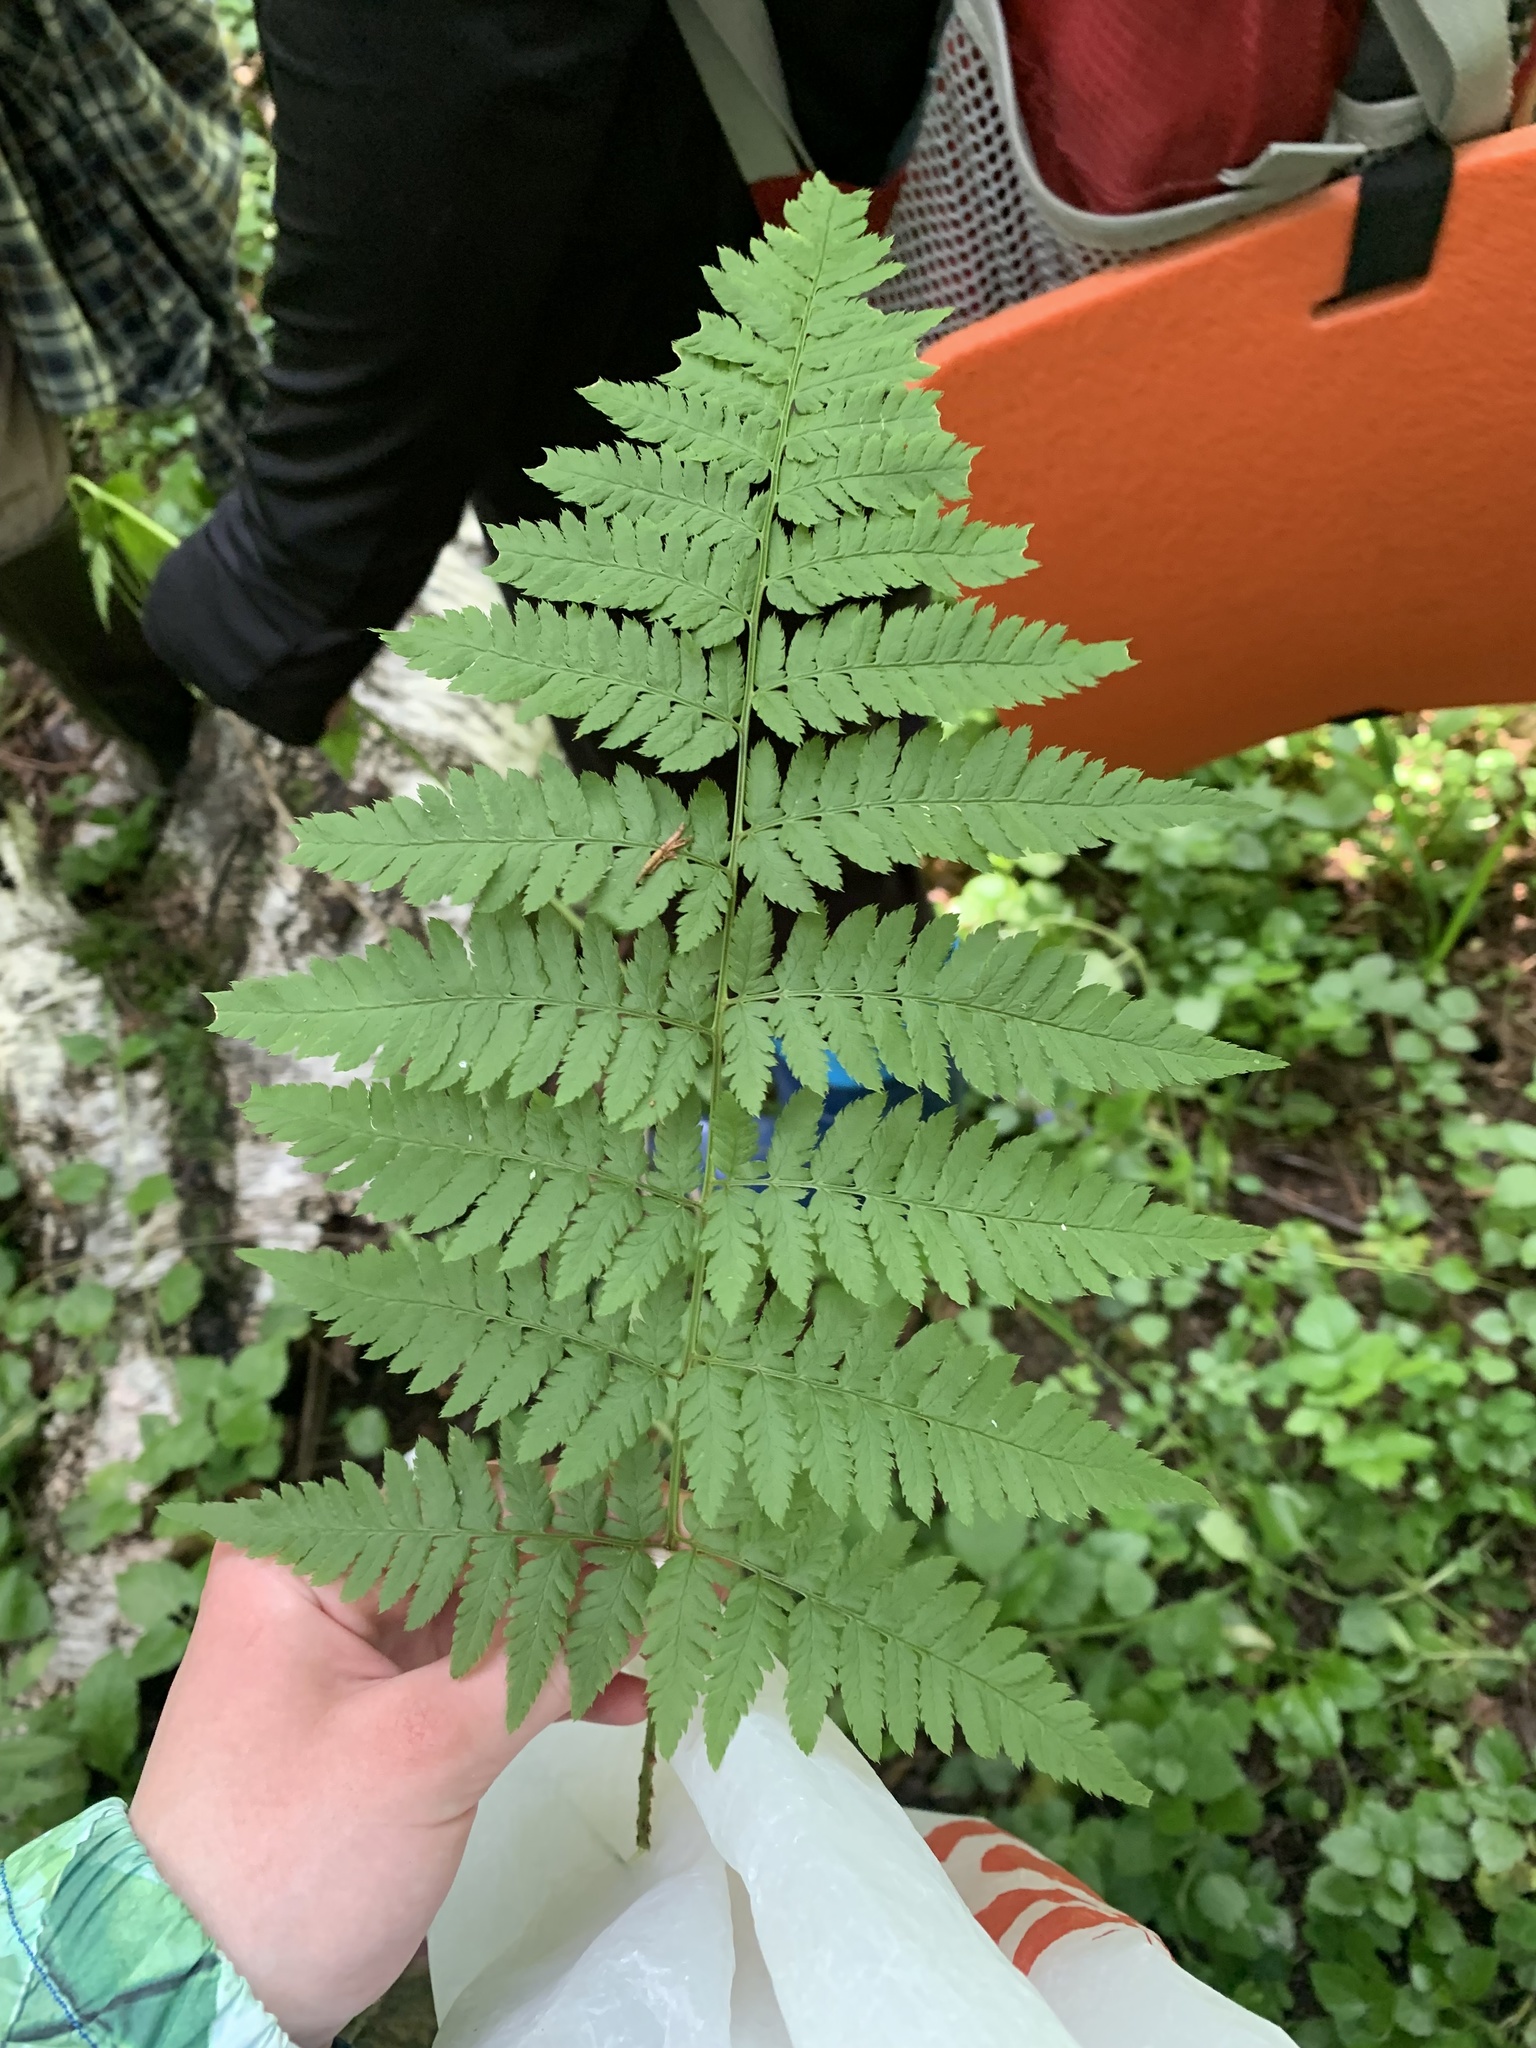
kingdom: Plantae
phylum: Tracheophyta
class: Polypodiopsida
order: Polypodiales
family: Dryopteridaceae
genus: Dryopteris
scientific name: Dryopteris carthusiana
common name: Narrow buckler-fern
